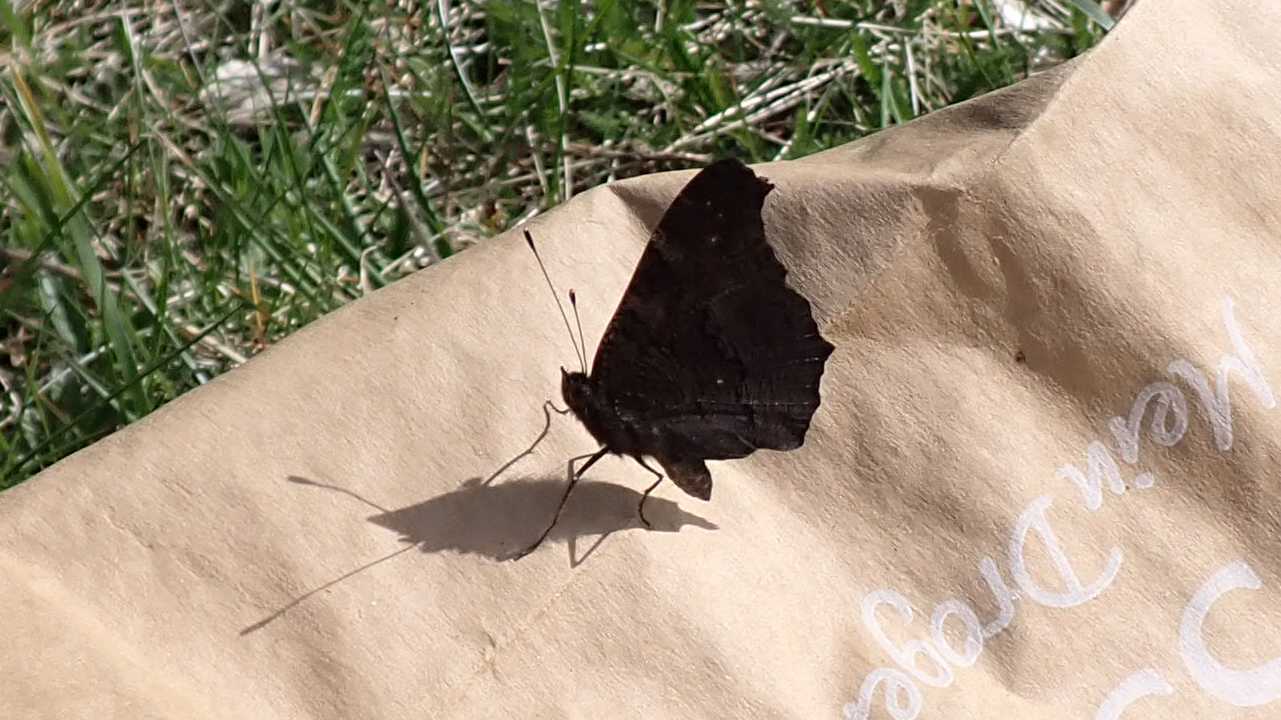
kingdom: Animalia
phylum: Arthropoda
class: Insecta
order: Lepidoptera
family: Nymphalidae
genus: Aglais
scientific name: Aglais io
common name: Peacock
